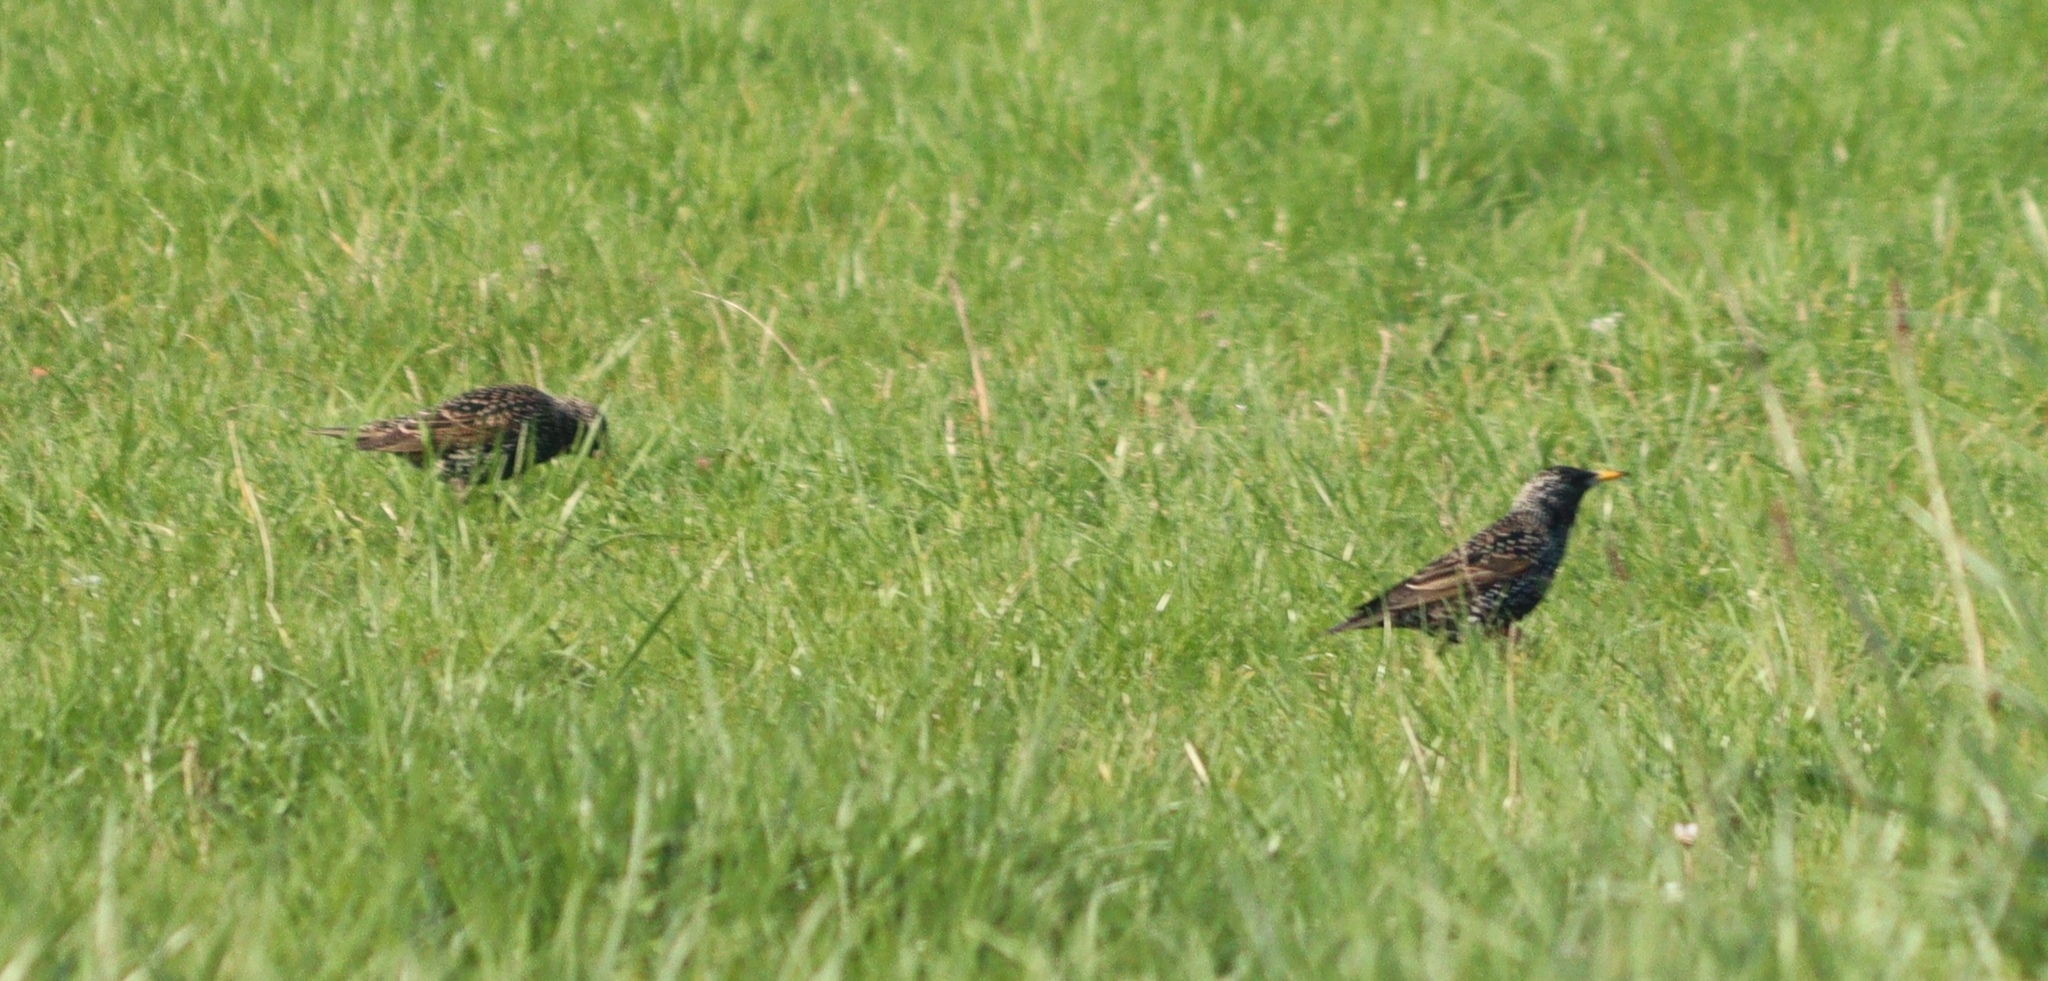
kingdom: Animalia
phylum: Chordata
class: Aves
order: Passeriformes
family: Sturnidae
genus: Sturnus
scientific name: Sturnus vulgaris
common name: Common starling
